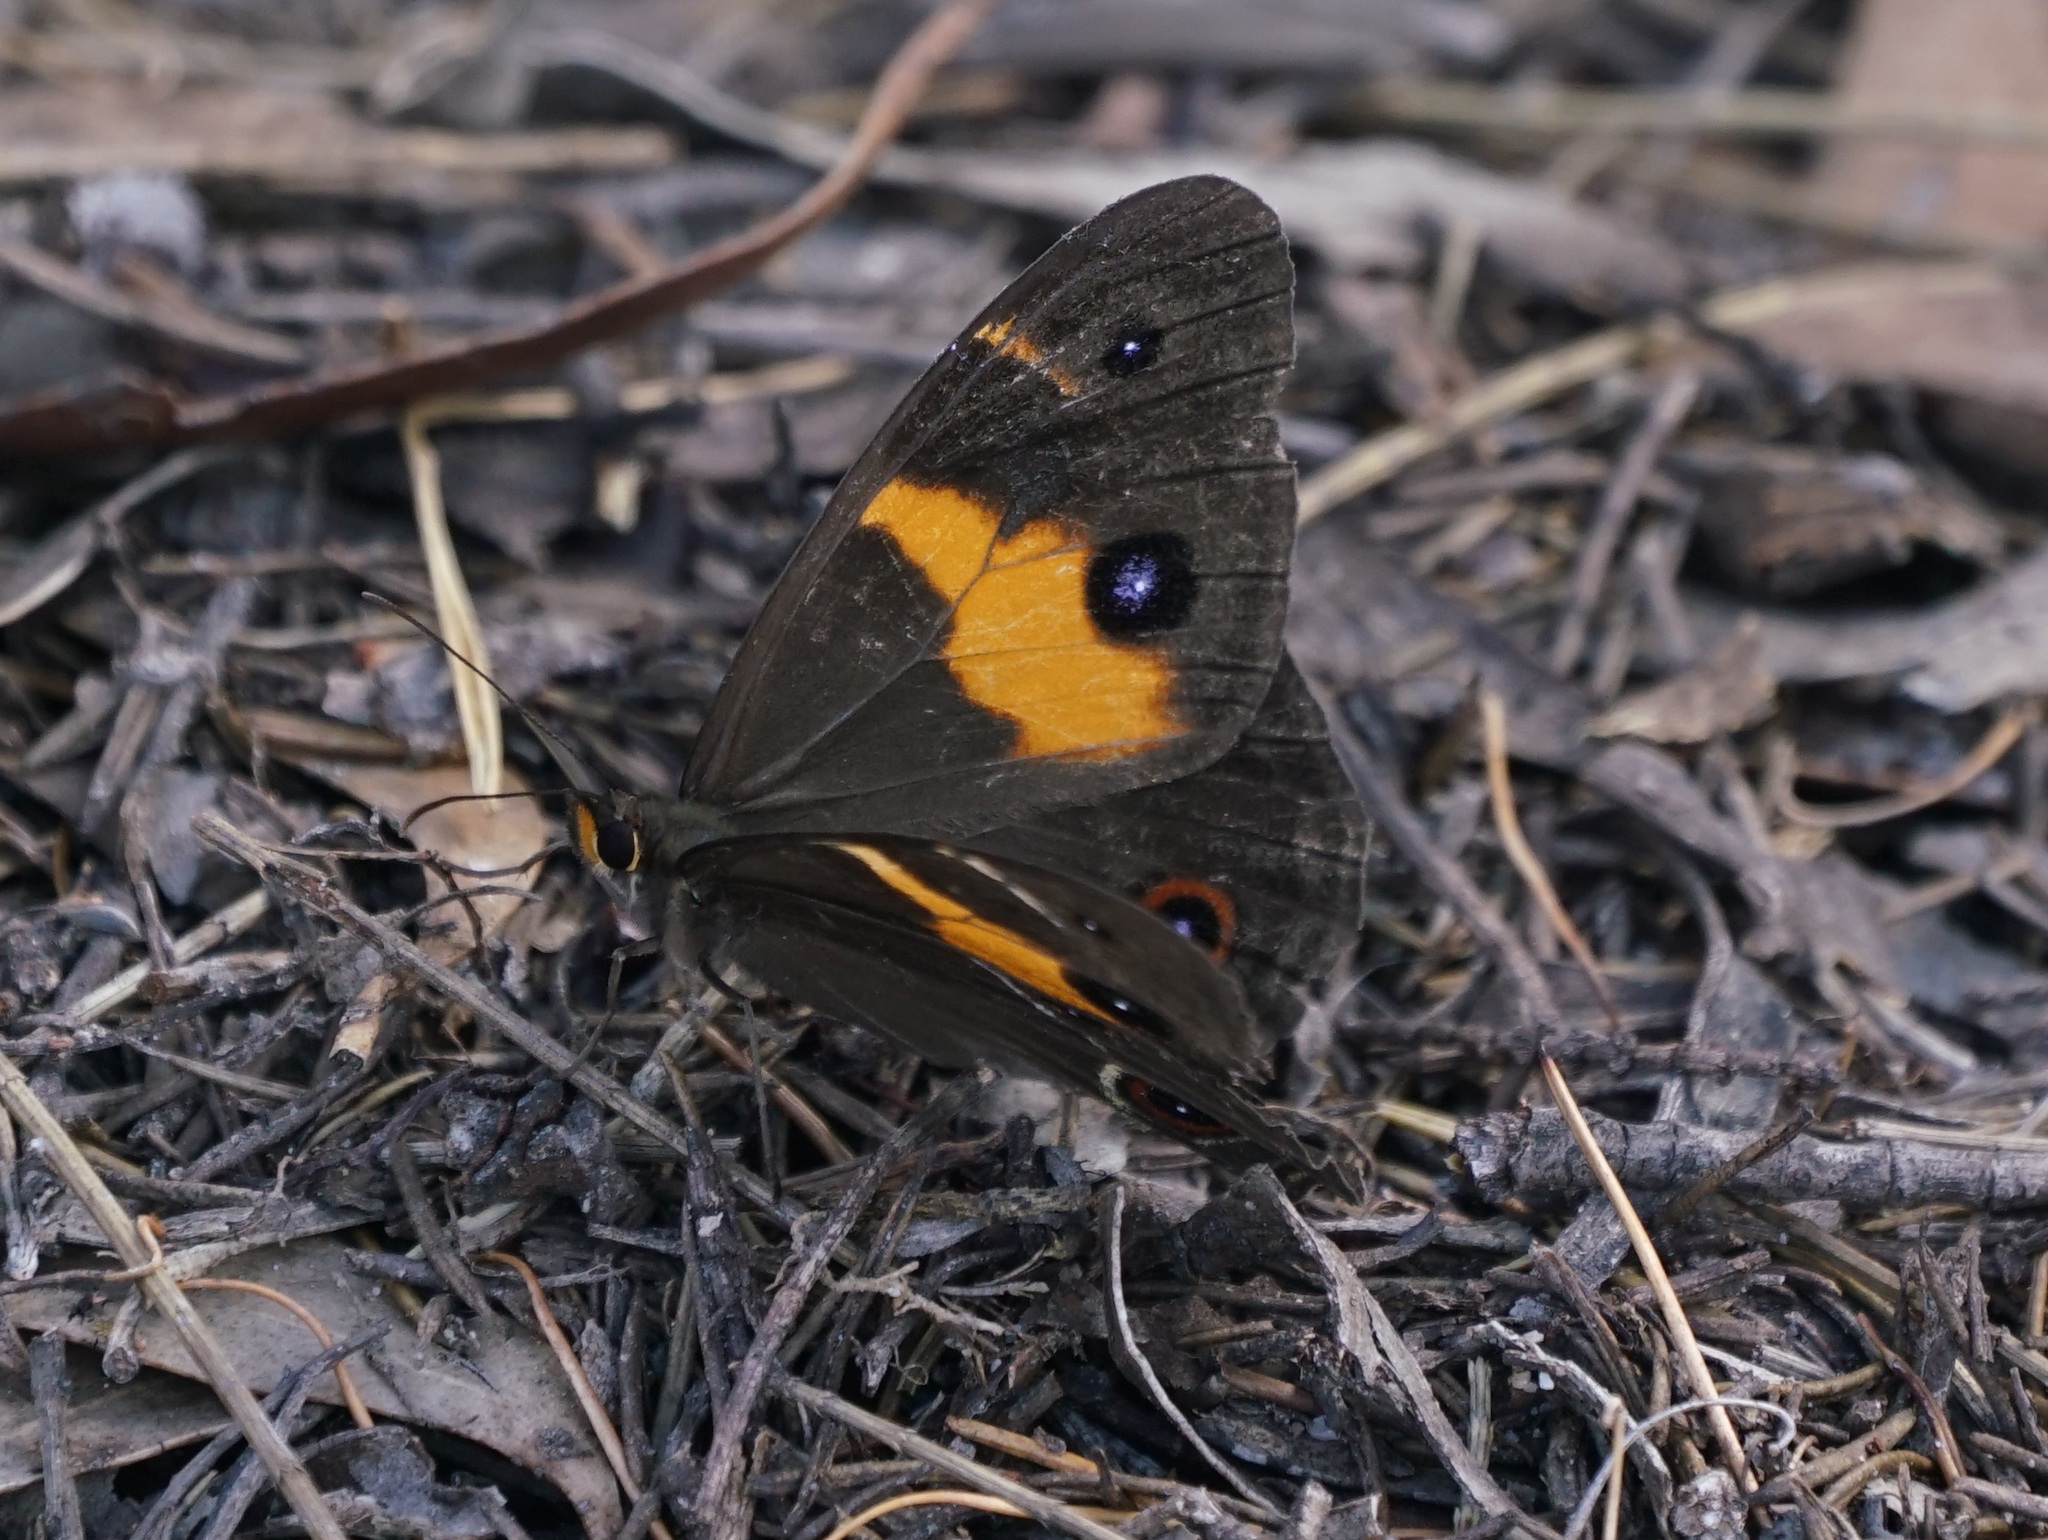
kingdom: Animalia
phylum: Arthropoda
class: Insecta
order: Lepidoptera
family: Nymphalidae
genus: Tisiphone
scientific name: Tisiphone abeona
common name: Swordgrass brown
